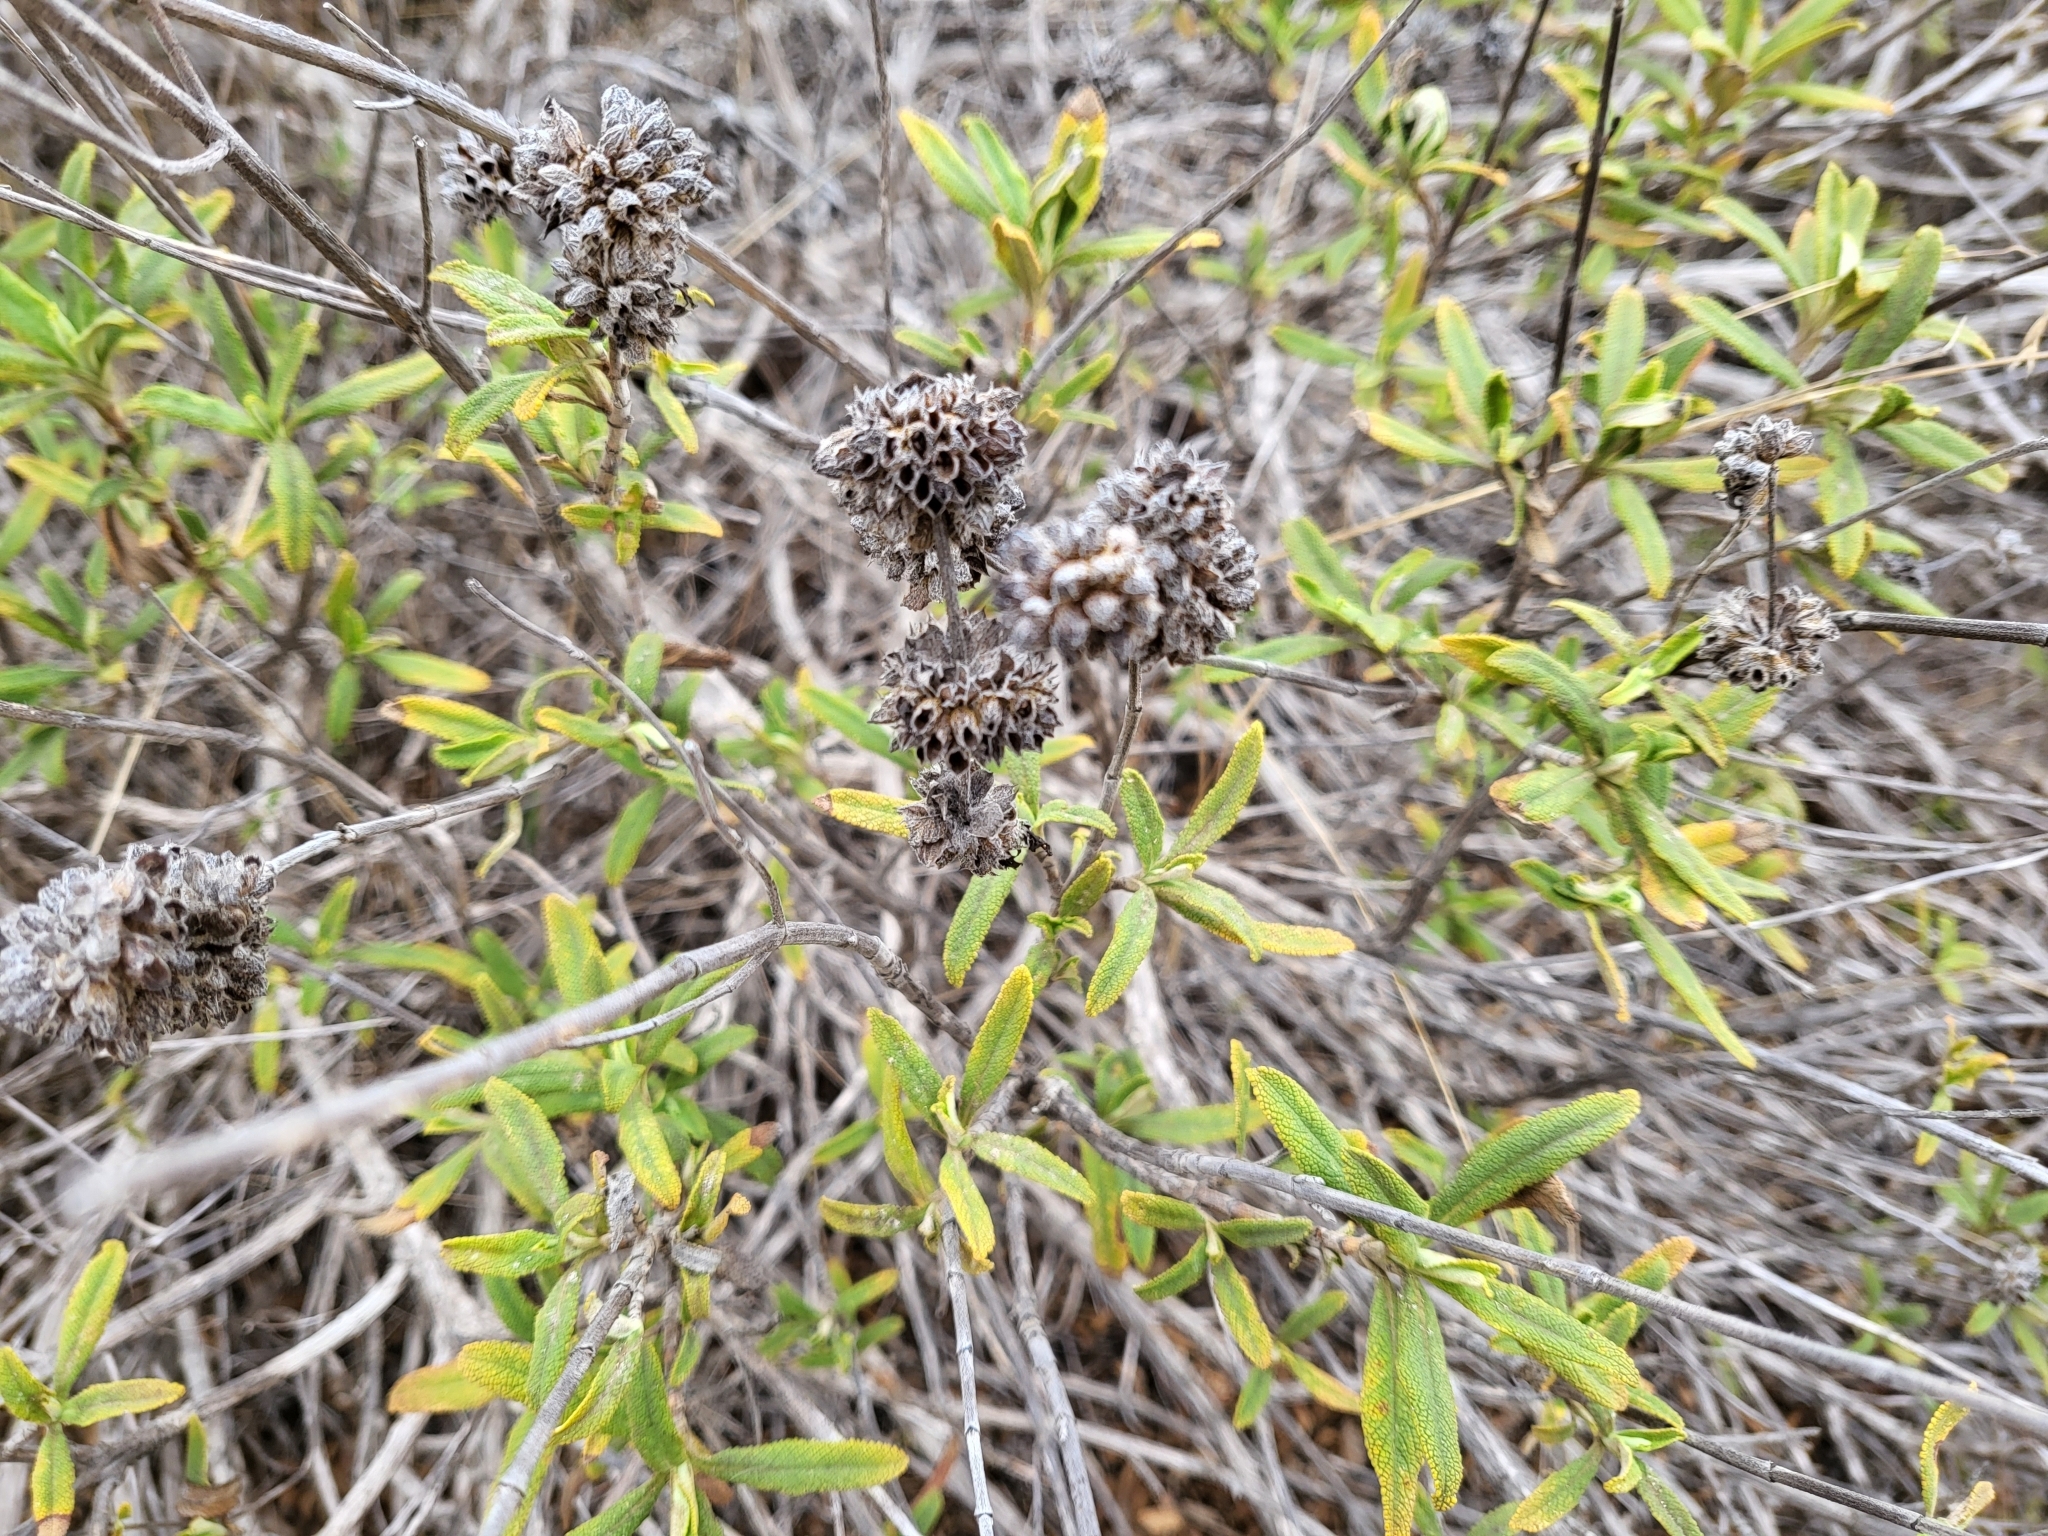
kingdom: Plantae
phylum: Tracheophyta
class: Magnoliopsida
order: Lamiales
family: Lamiaceae
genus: Salvia
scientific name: Salvia mellifera
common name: Black sage
